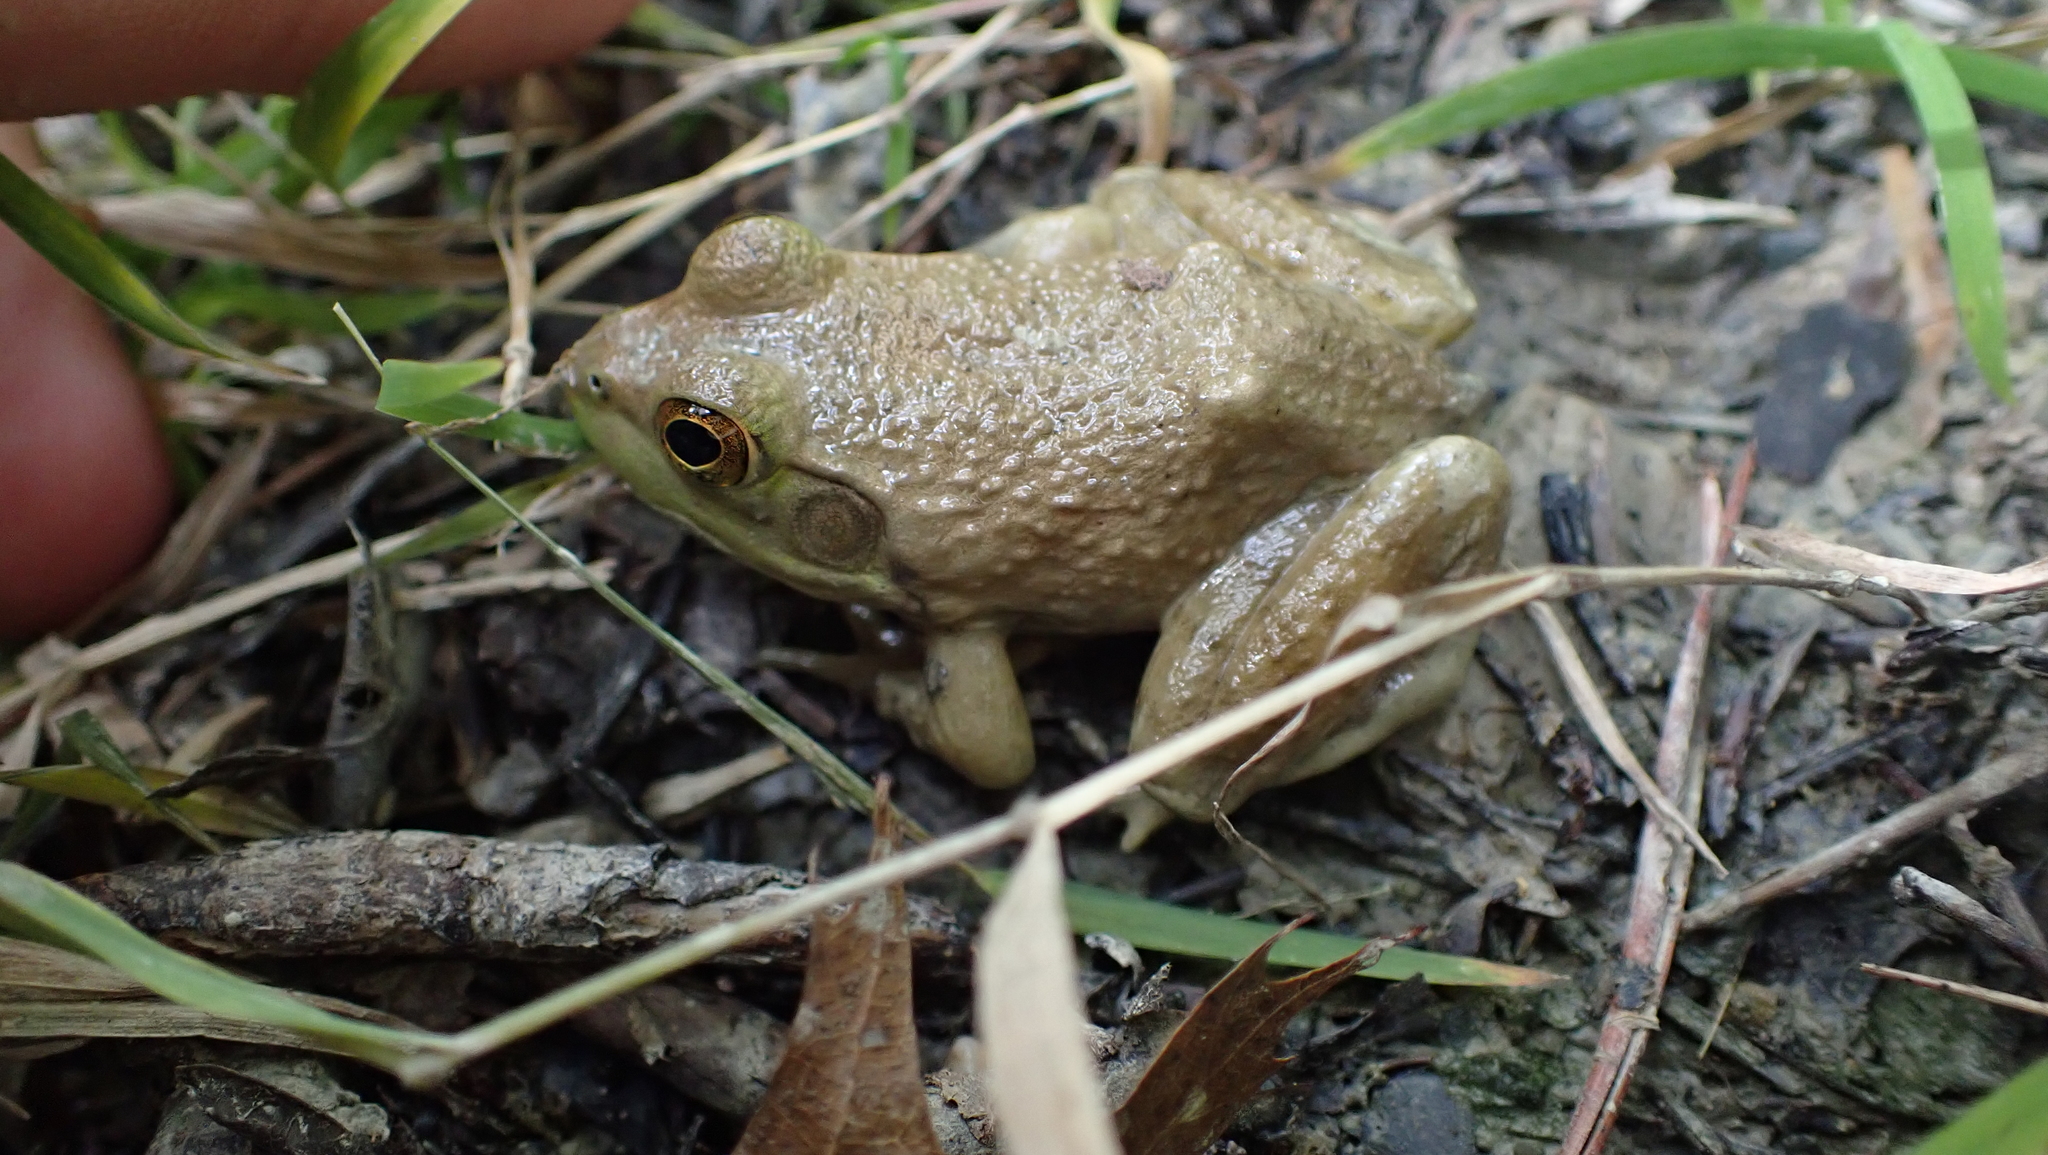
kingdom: Animalia
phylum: Chordata
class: Amphibia
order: Anura
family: Ranidae
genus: Lithobates
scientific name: Lithobates catesbeianus
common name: American bullfrog
